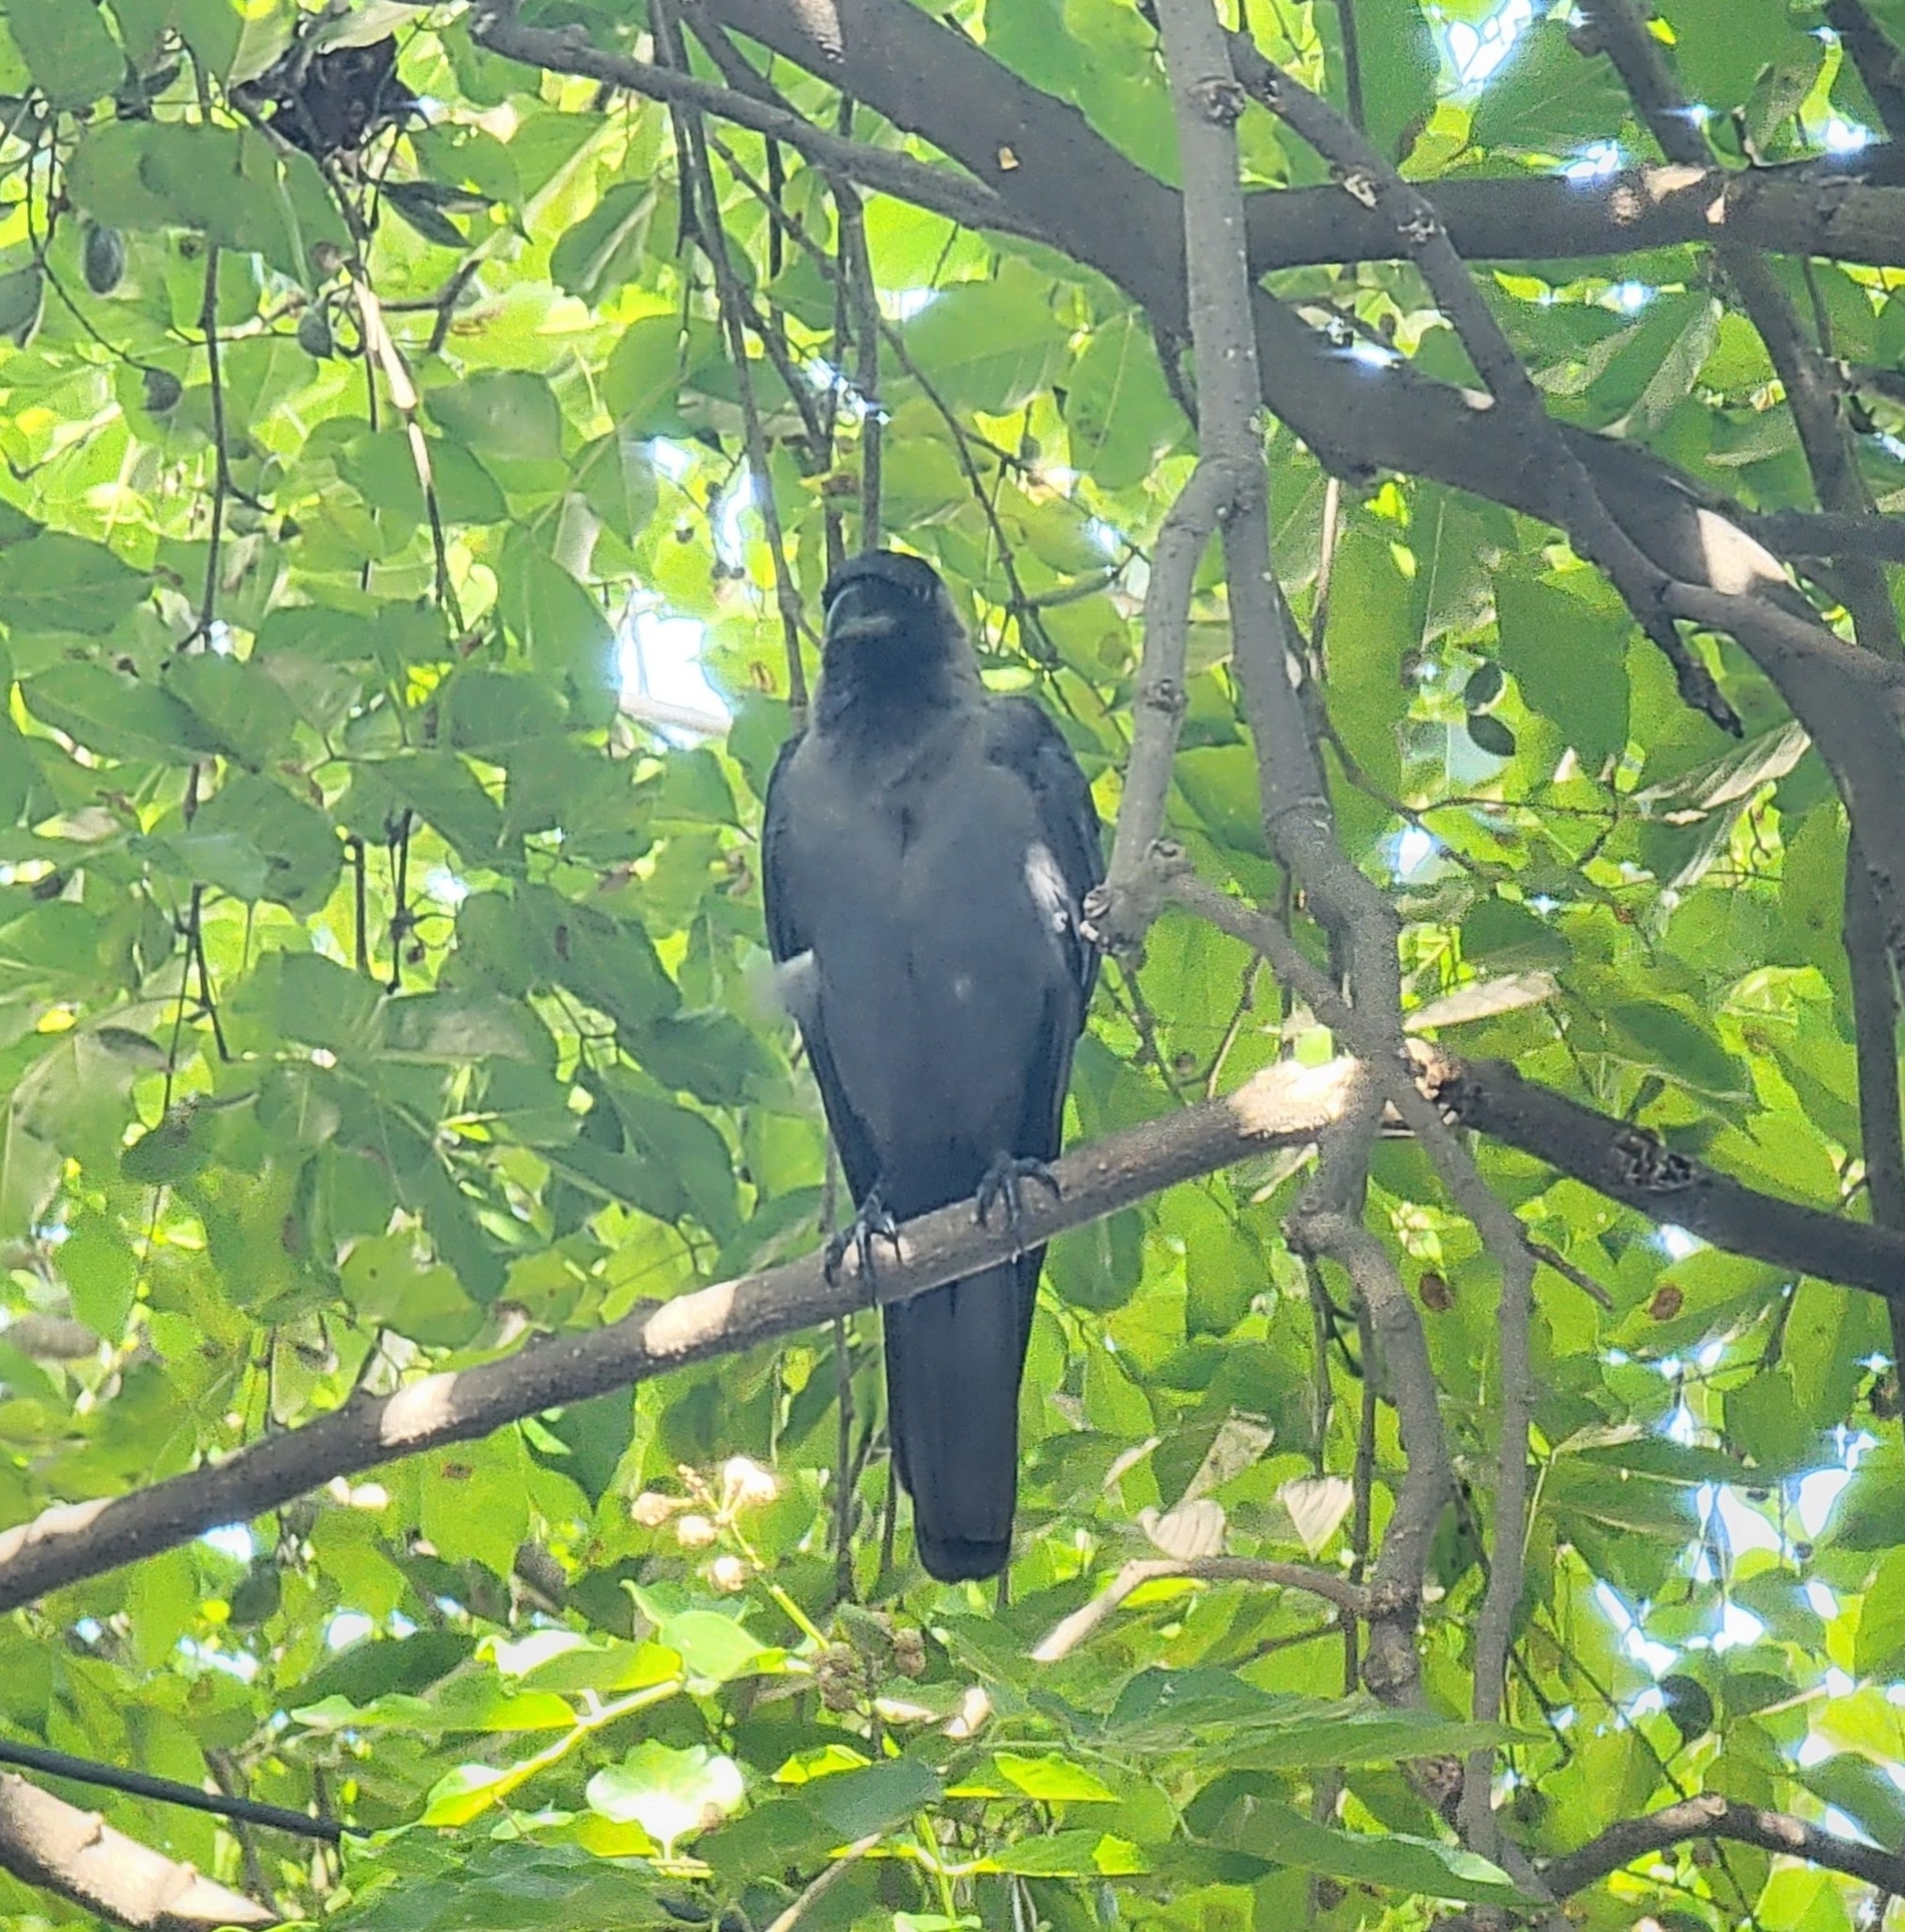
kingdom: Animalia
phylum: Chordata
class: Aves
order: Passeriformes
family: Corvidae
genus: Corvus
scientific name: Corvus splendens
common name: House crow
